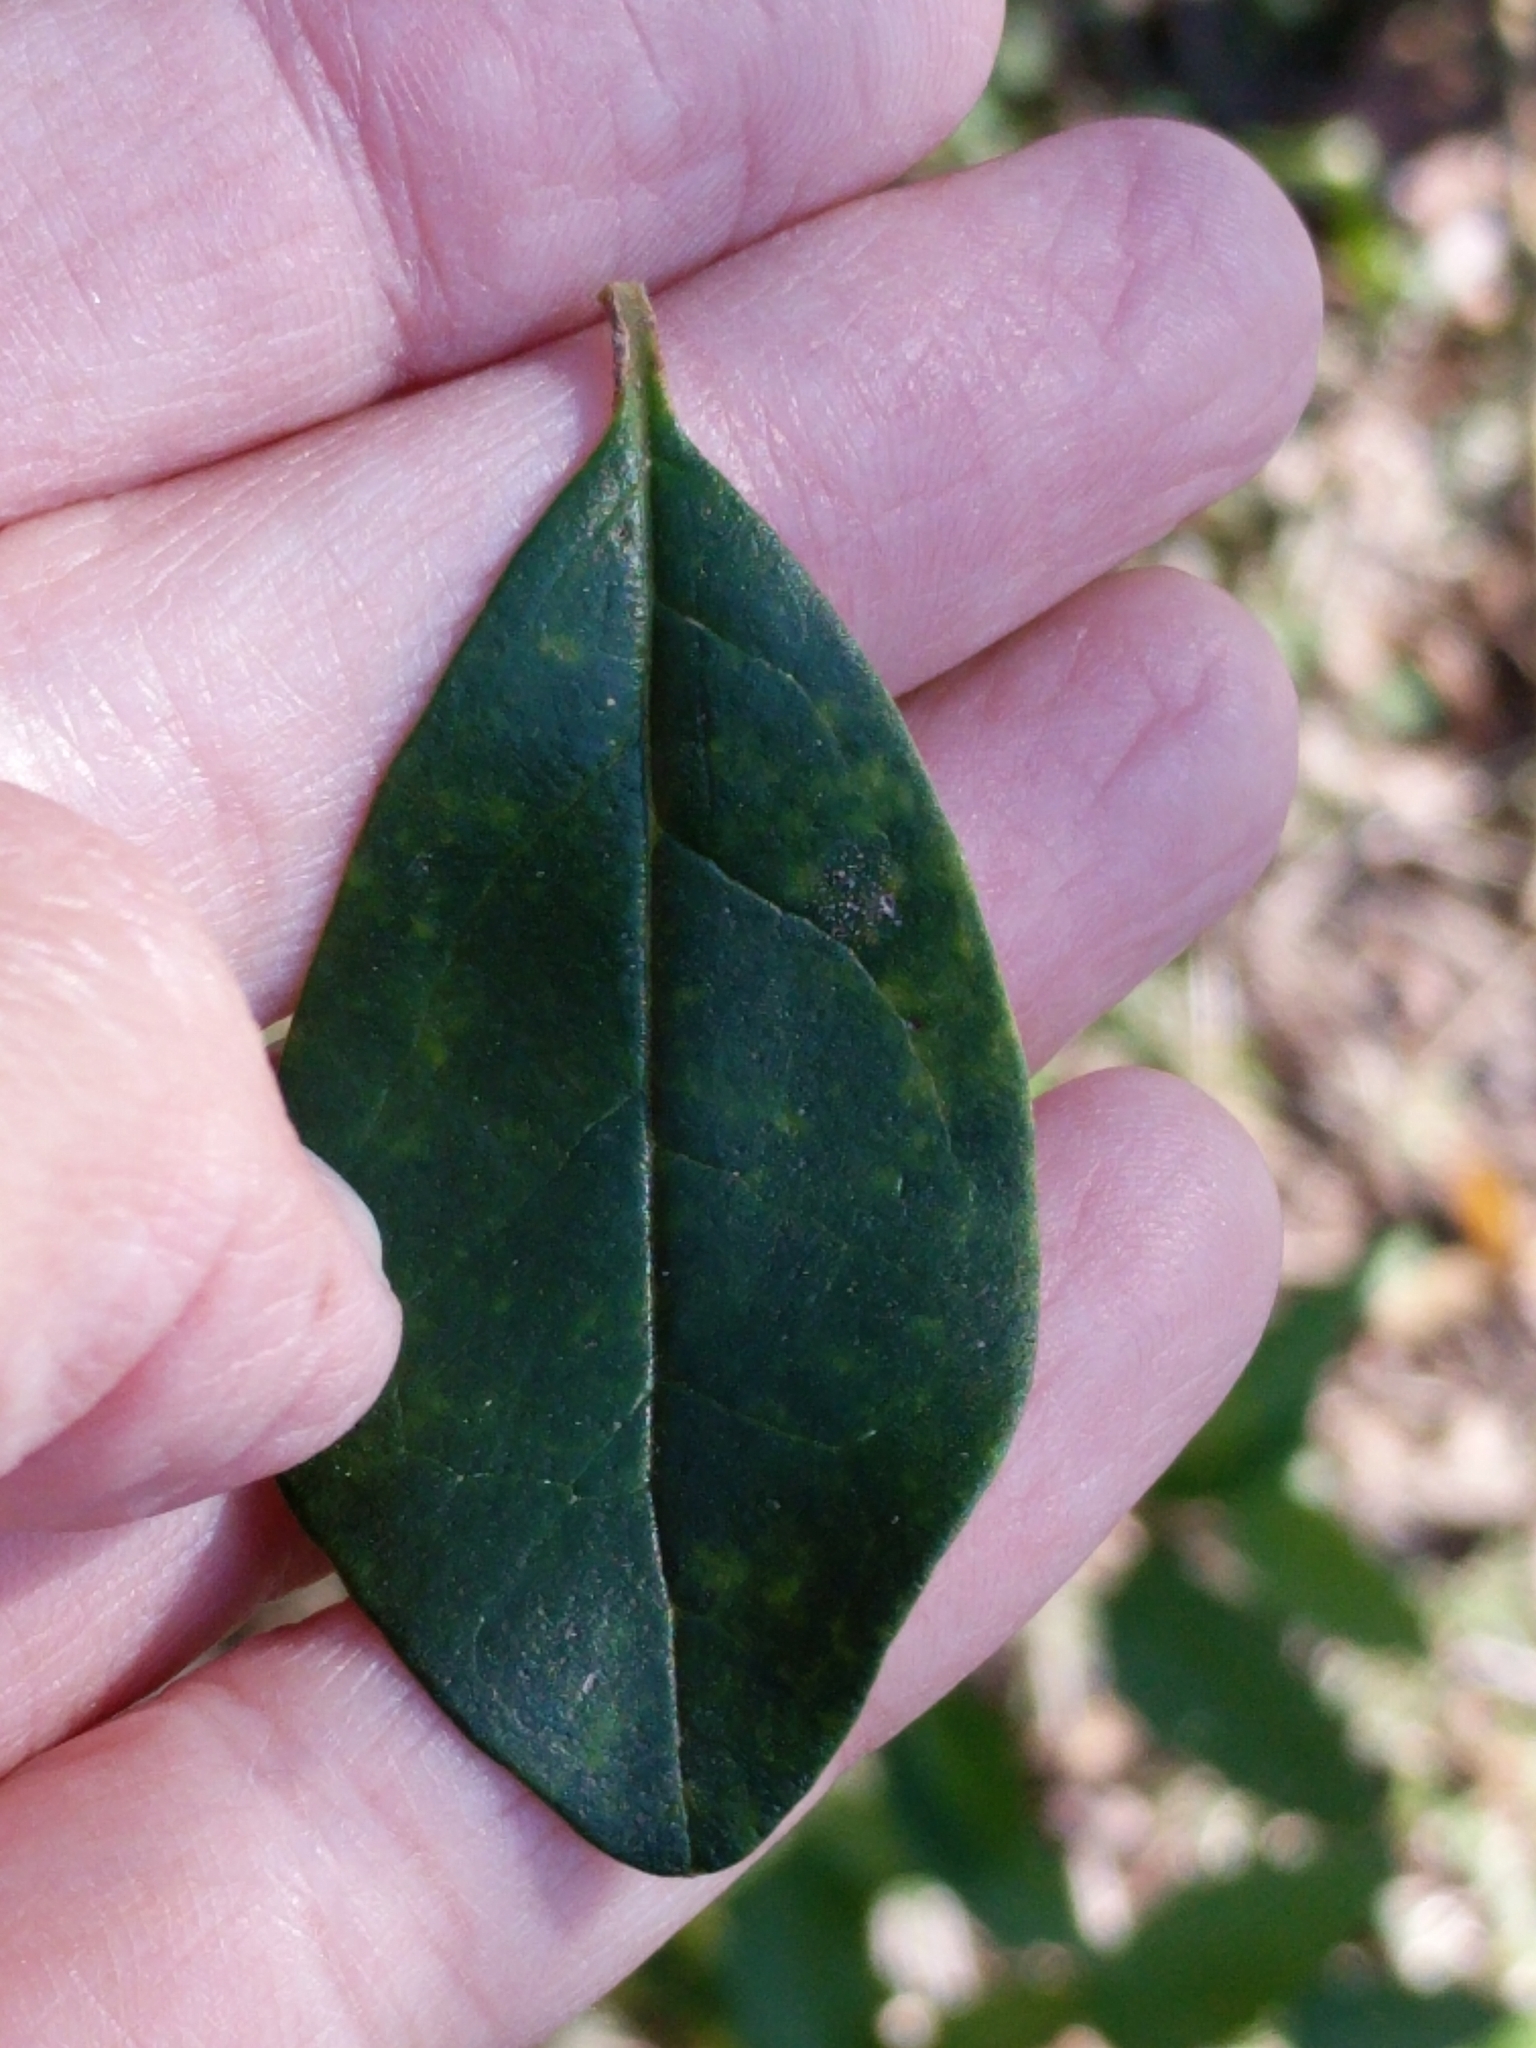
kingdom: Plantae
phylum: Tracheophyta
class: Magnoliopsida
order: Lamiales
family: Oleaceae
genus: Ligustrum
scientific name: Ligustrum quihoui
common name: Waxyleaf privet
